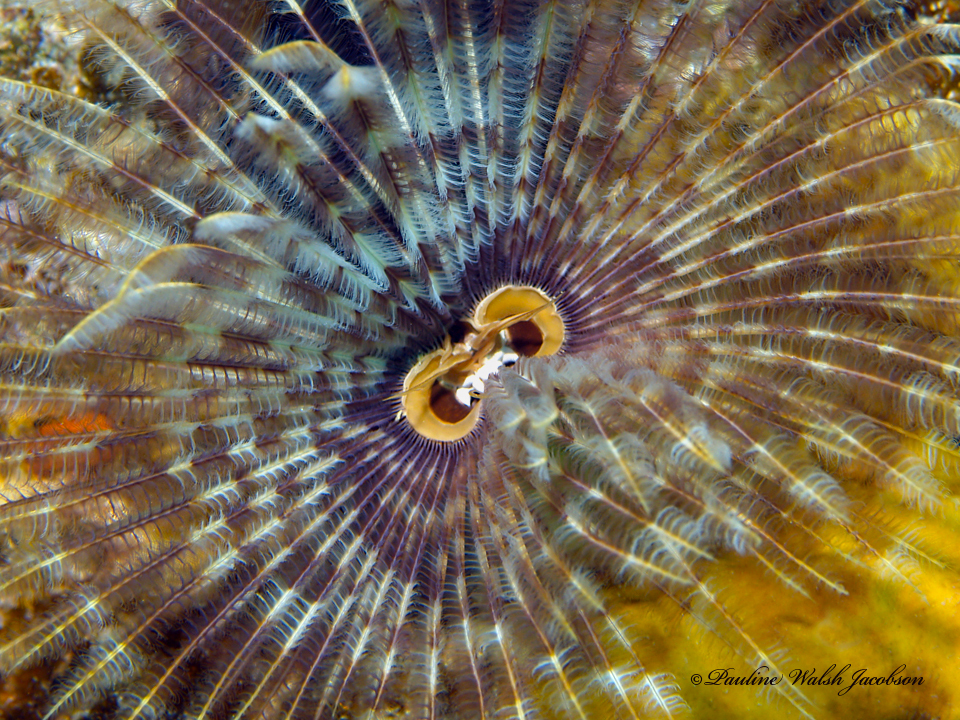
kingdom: Animalia
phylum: Annelida
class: Polychaeta
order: Sabellida
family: Sabellidae
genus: Sabellastarte
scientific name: Sabellastarte magnifica
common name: Giant feather-duster worm
